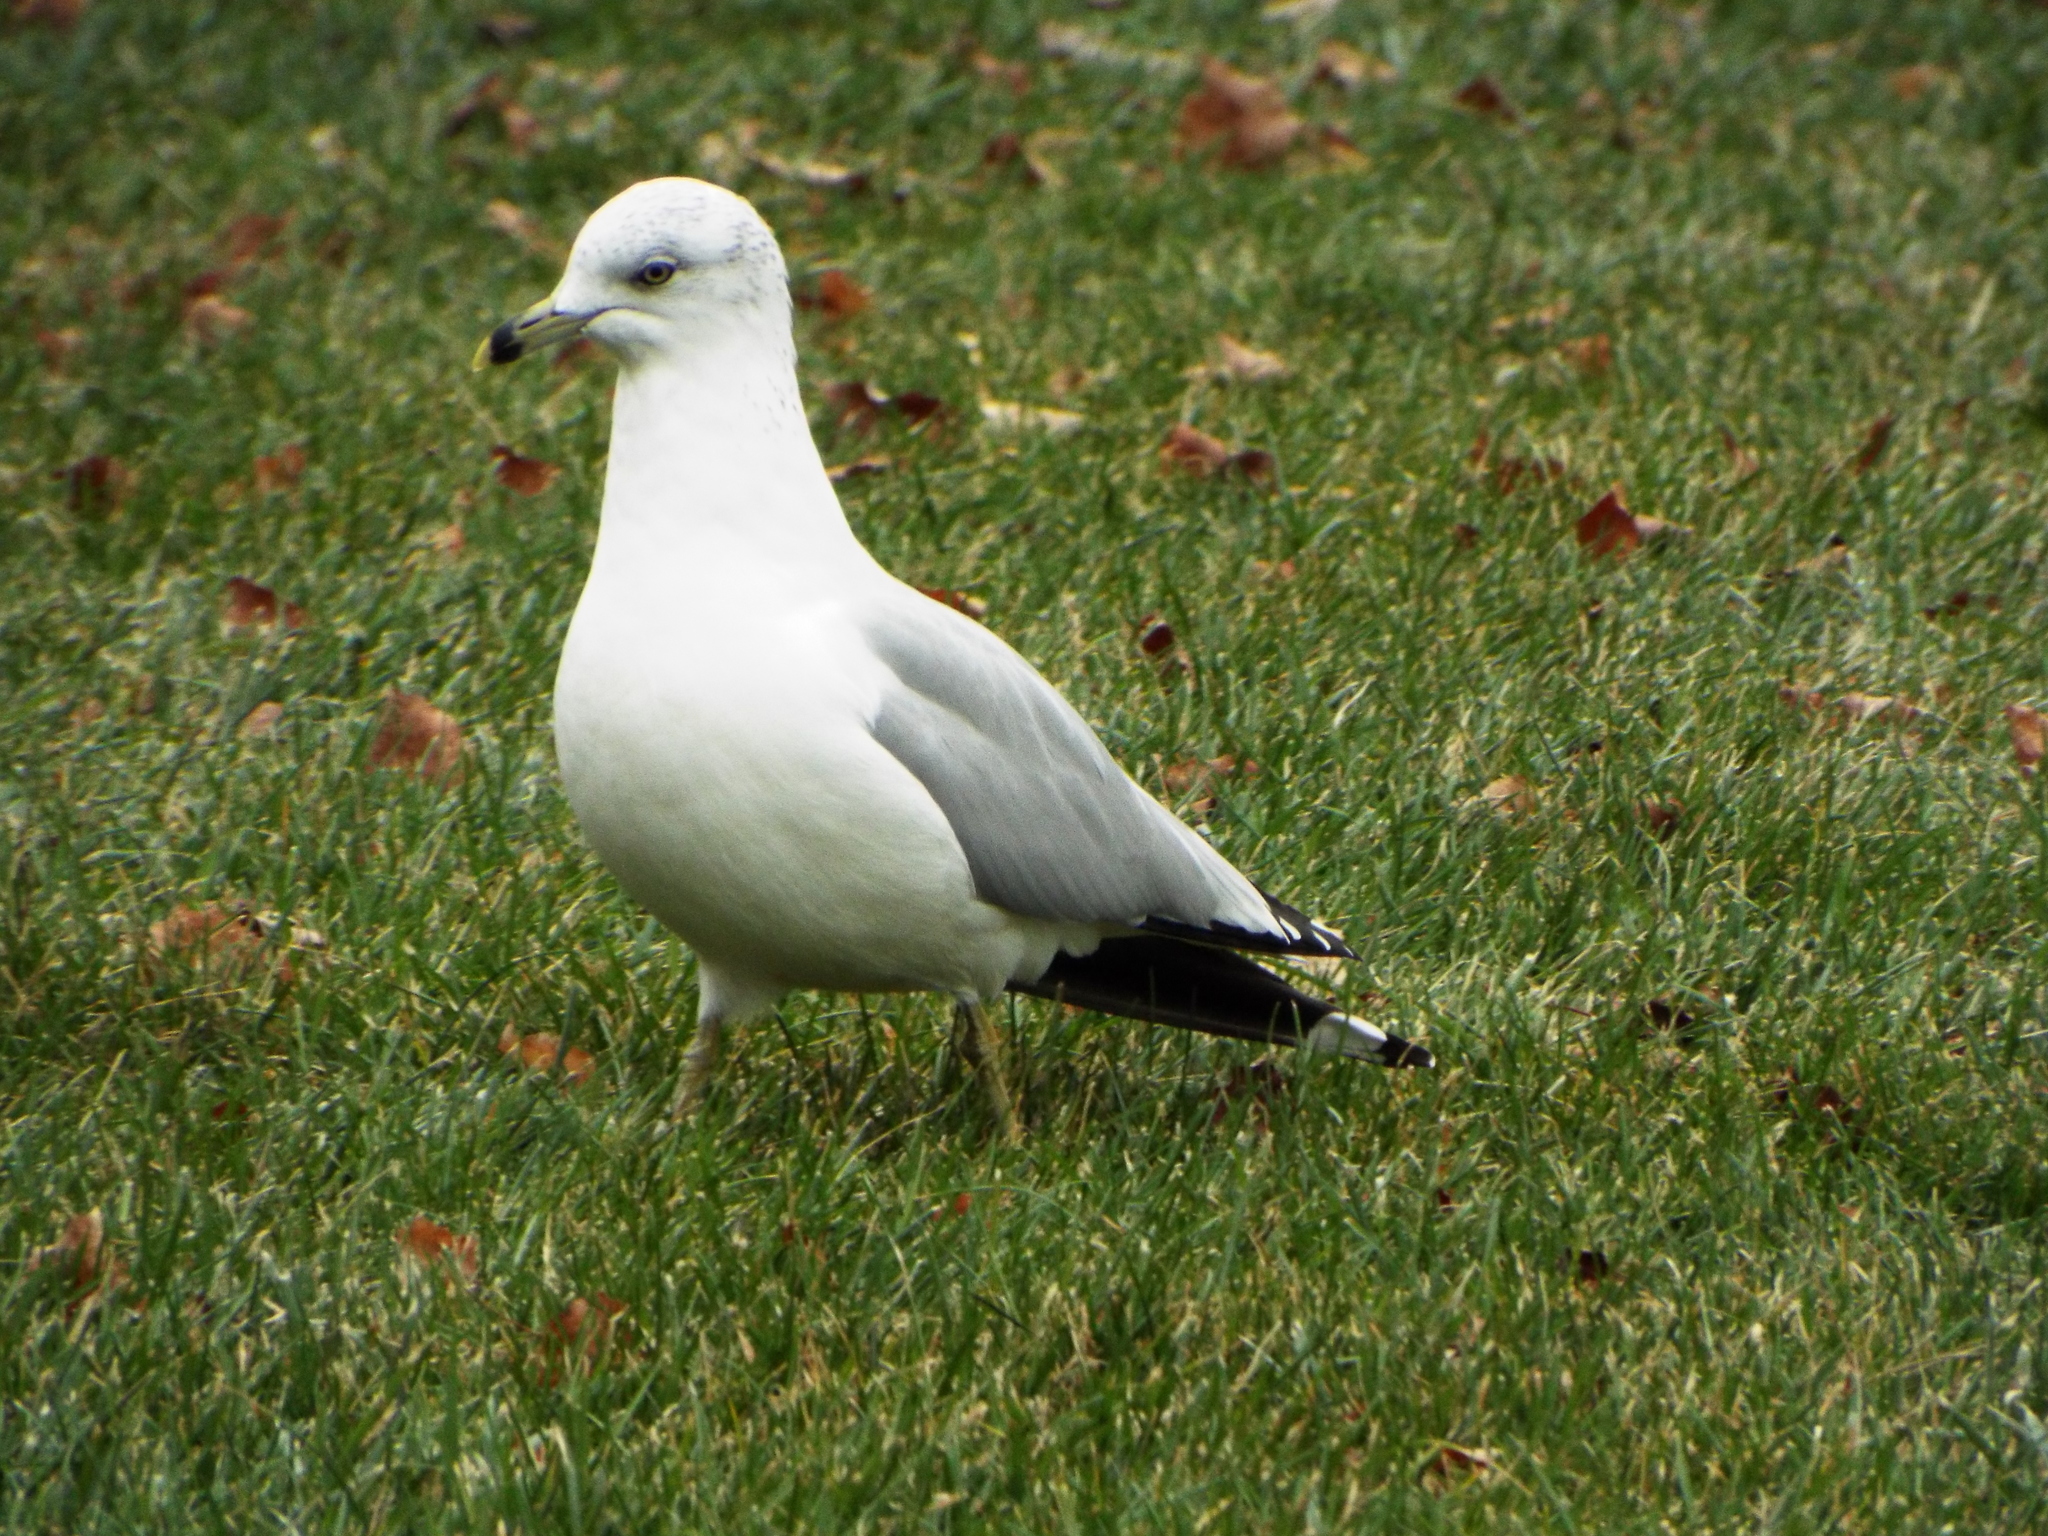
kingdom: Animalia
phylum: Chordata
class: Aves
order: Charadriiformes
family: Laridae
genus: Larus
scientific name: Larus delawarensis
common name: Ring-billed gull
